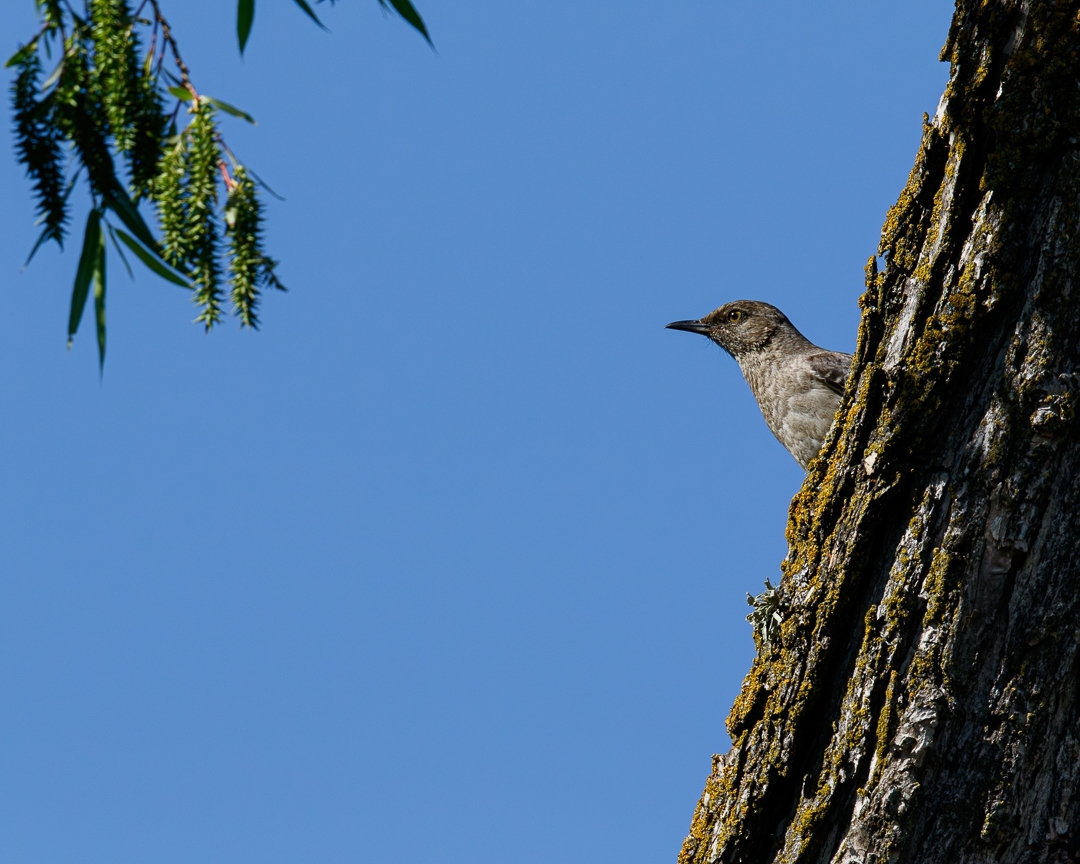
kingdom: Animalia
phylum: Chordata
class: Aves
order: Passeriformes
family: Mimidae
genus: Mimus
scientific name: Mimus polyglottos
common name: Northern mockingbird
